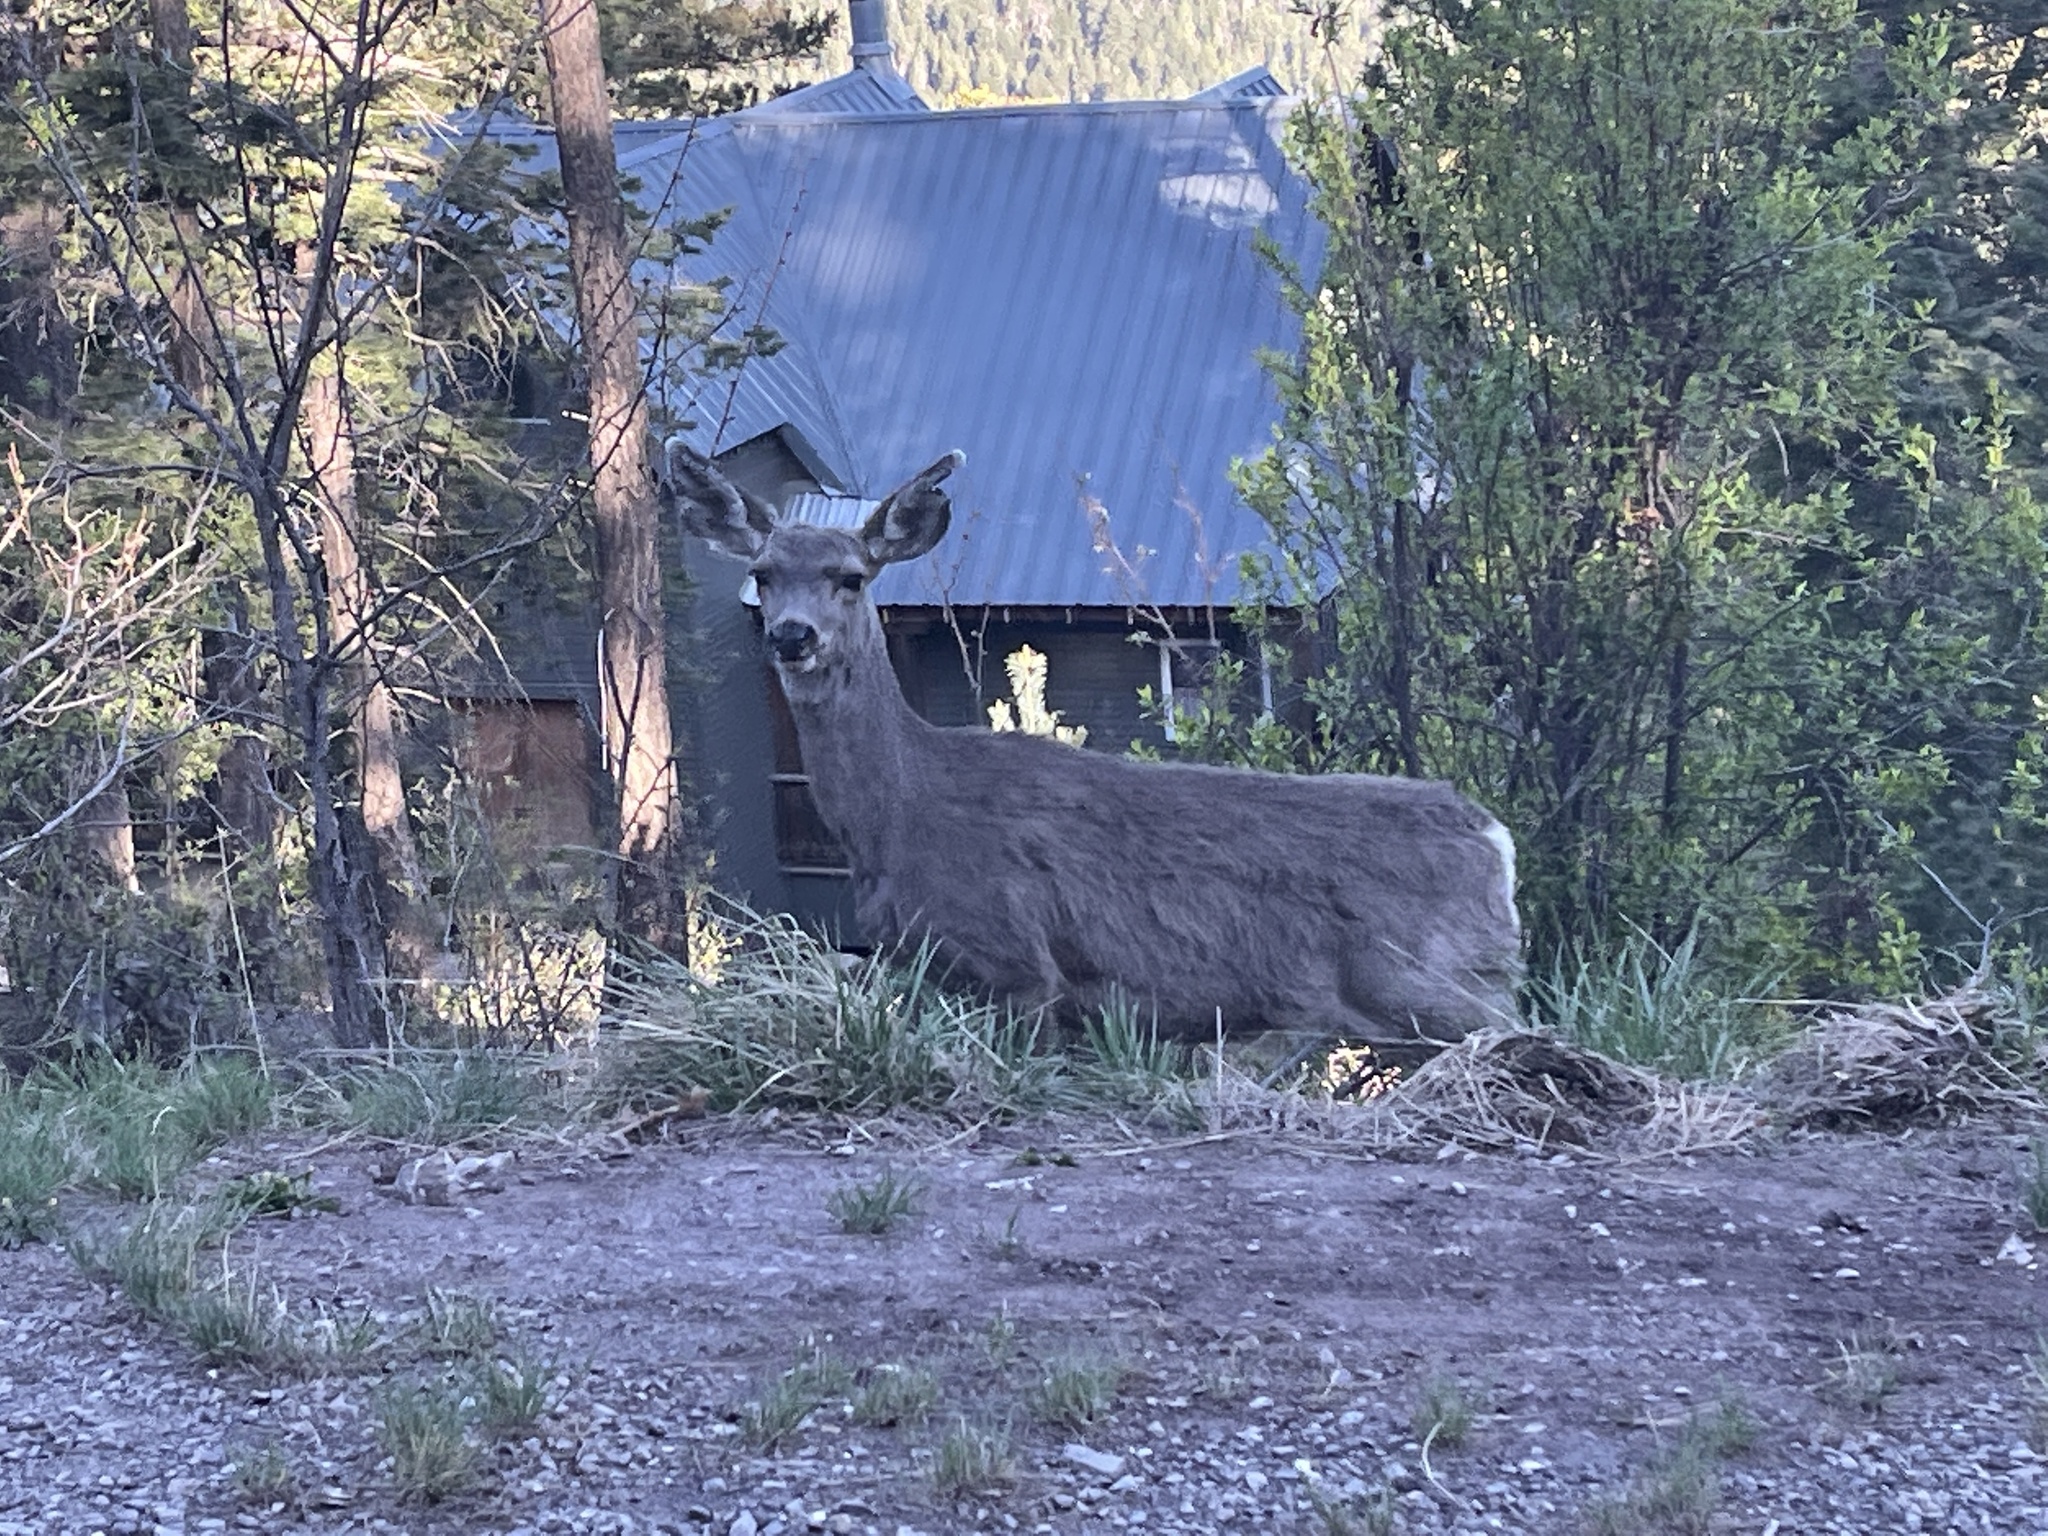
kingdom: Animalia
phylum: Chordata
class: Mammalia
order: Artiodactyla
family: Cervidae
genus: Odocoileus
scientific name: Odocoileus hemionus
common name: Mule deer
